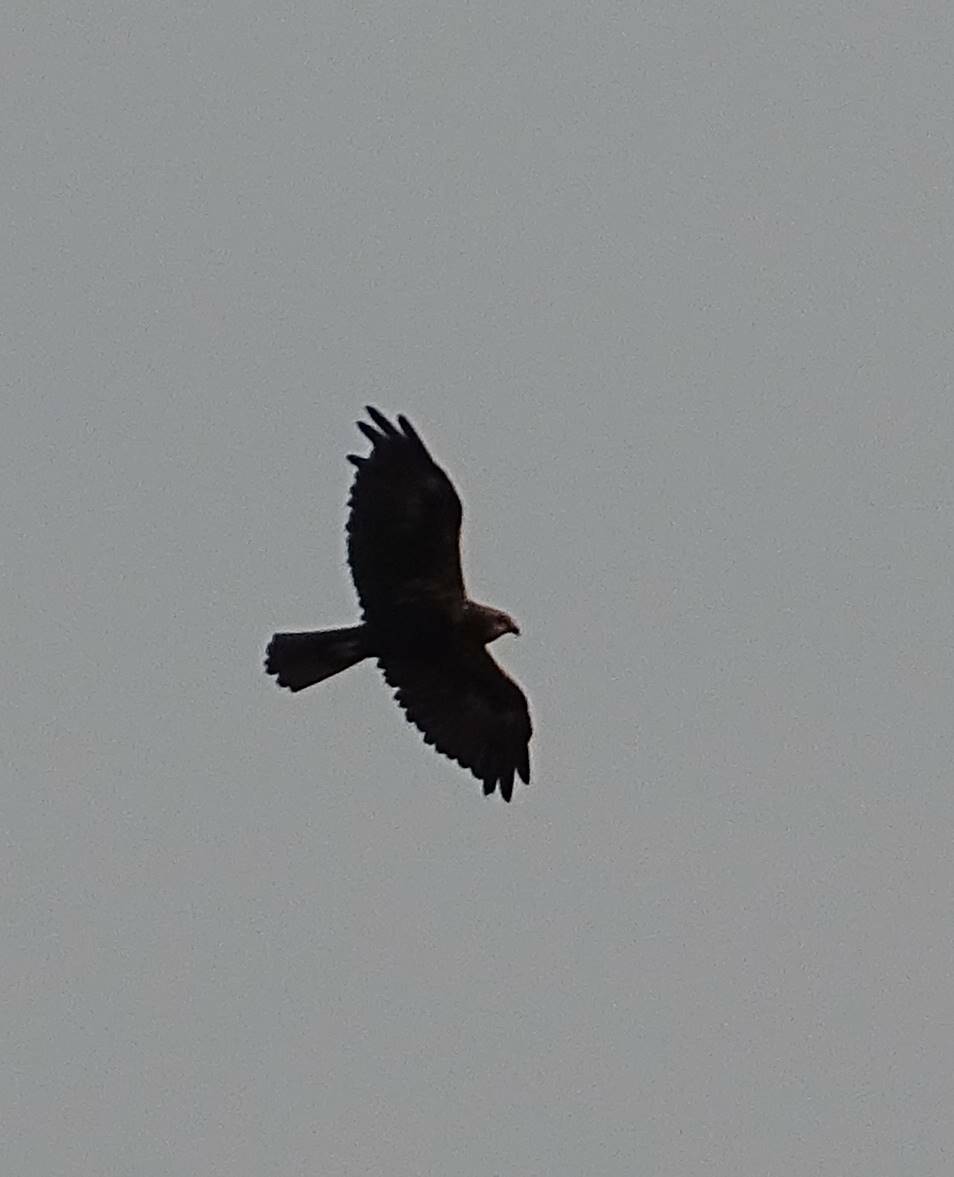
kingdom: Animalia
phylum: Chordata
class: Aves
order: Accipitriformes
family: Accipitridae
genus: Circus
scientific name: Circus aeruginosus
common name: Western marsh harrier
